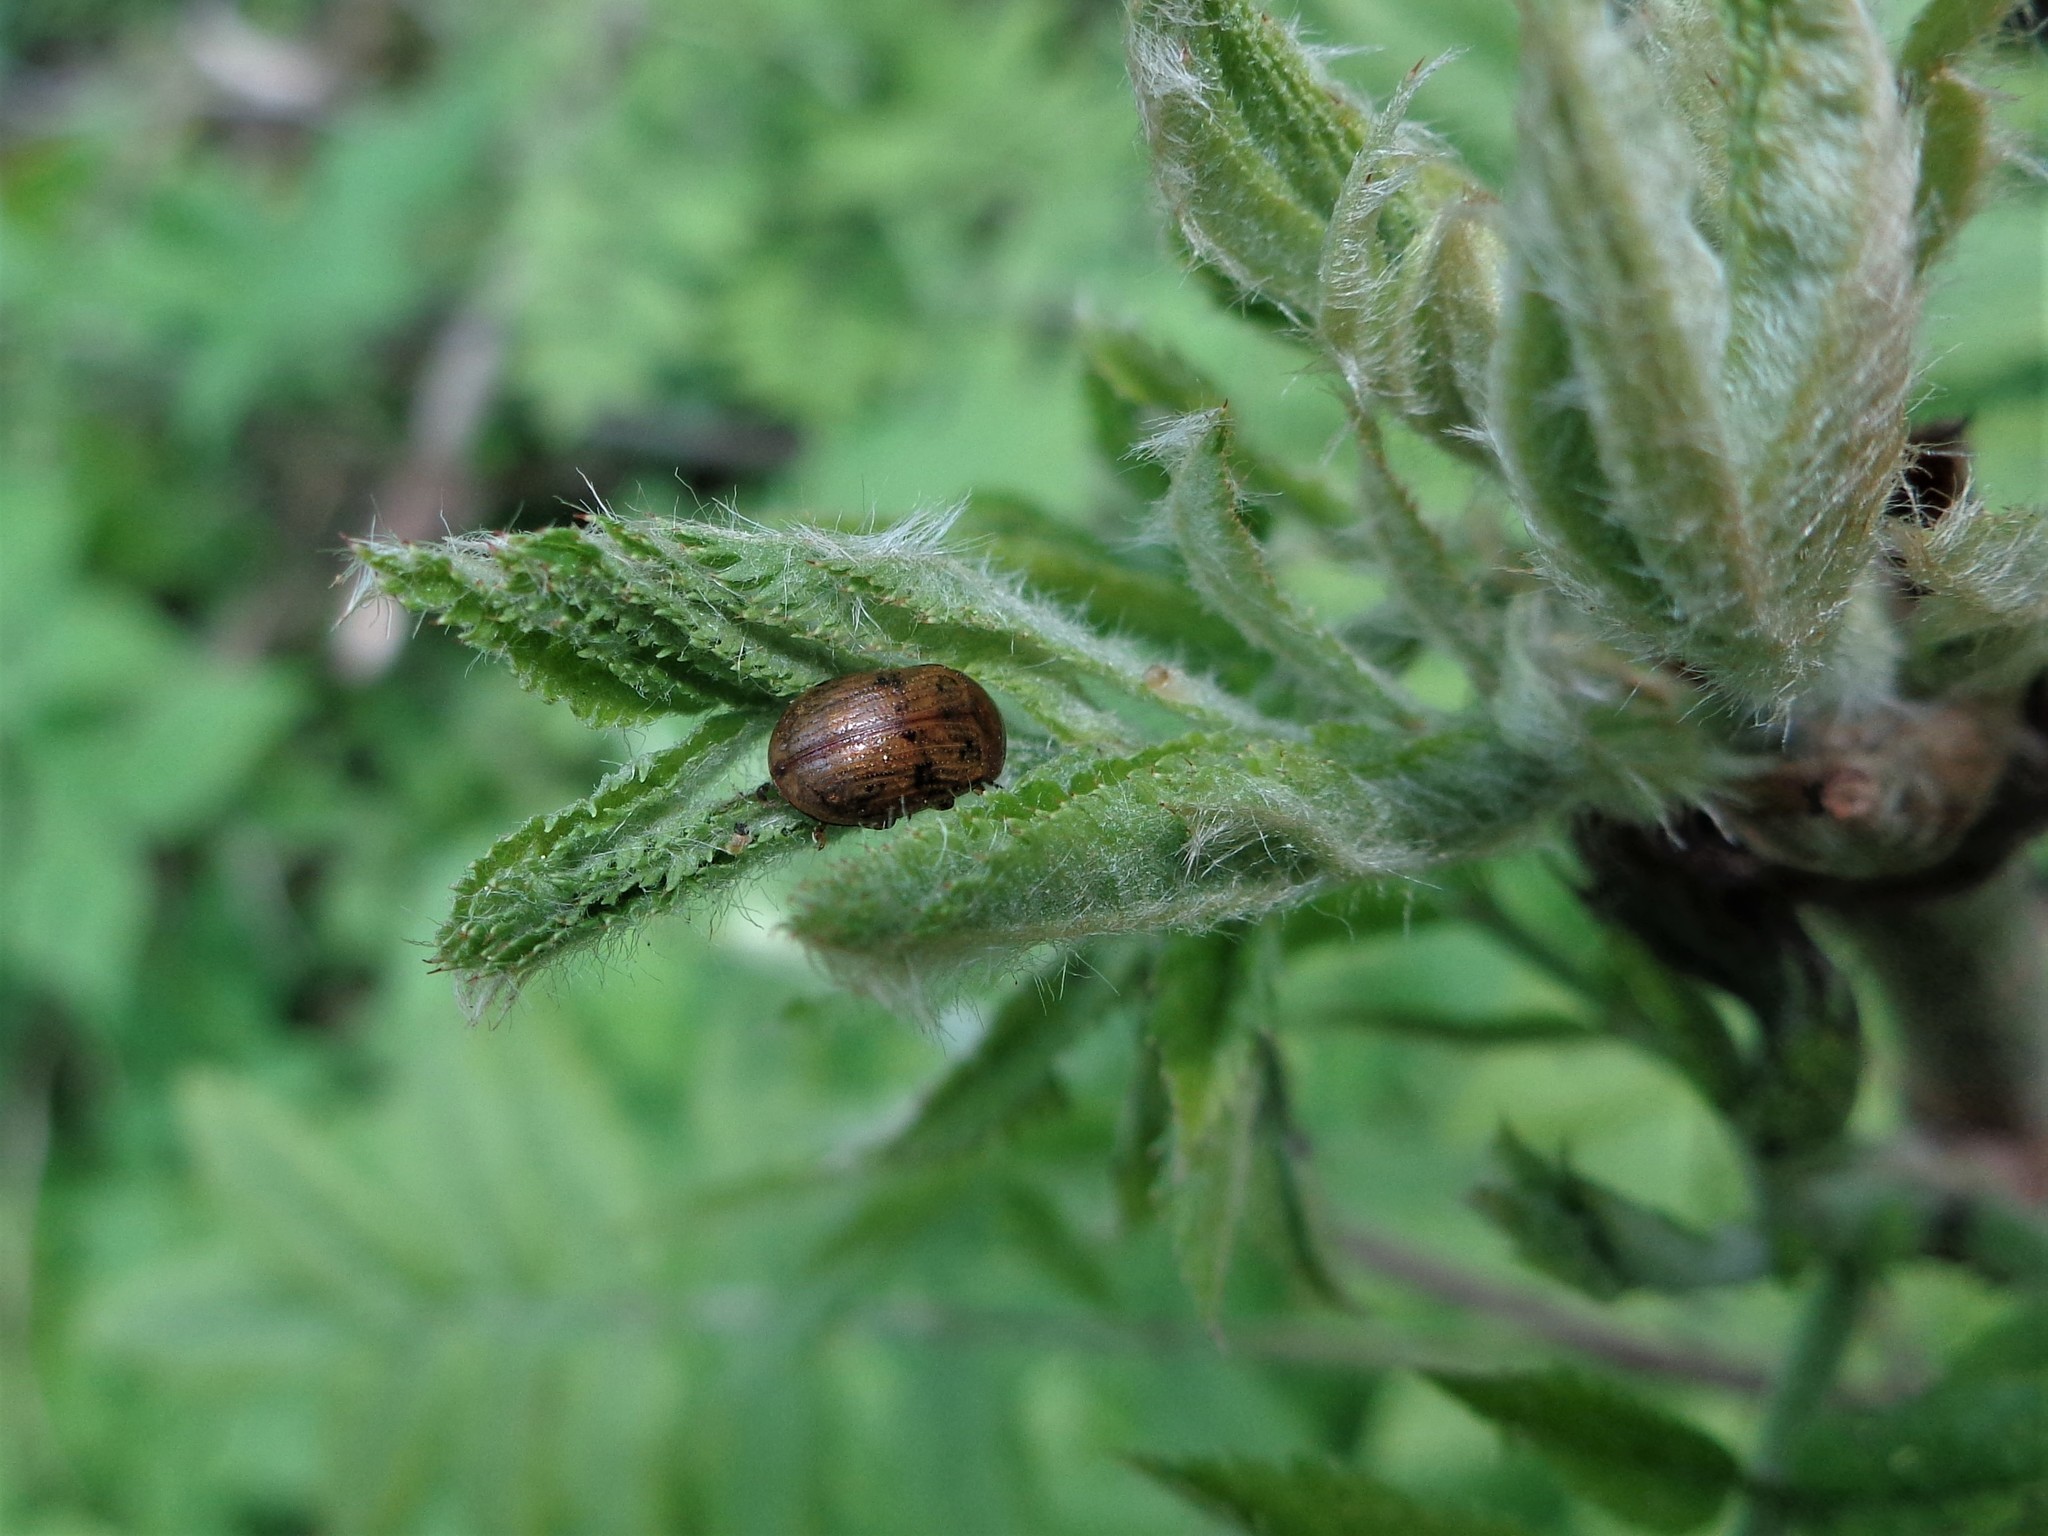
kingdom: Animalia
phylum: Arthropoda
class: Insecta
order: Coleoptera
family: Chrysomelidae
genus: Gonioctena
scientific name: Gonioctena quinquepunctata
